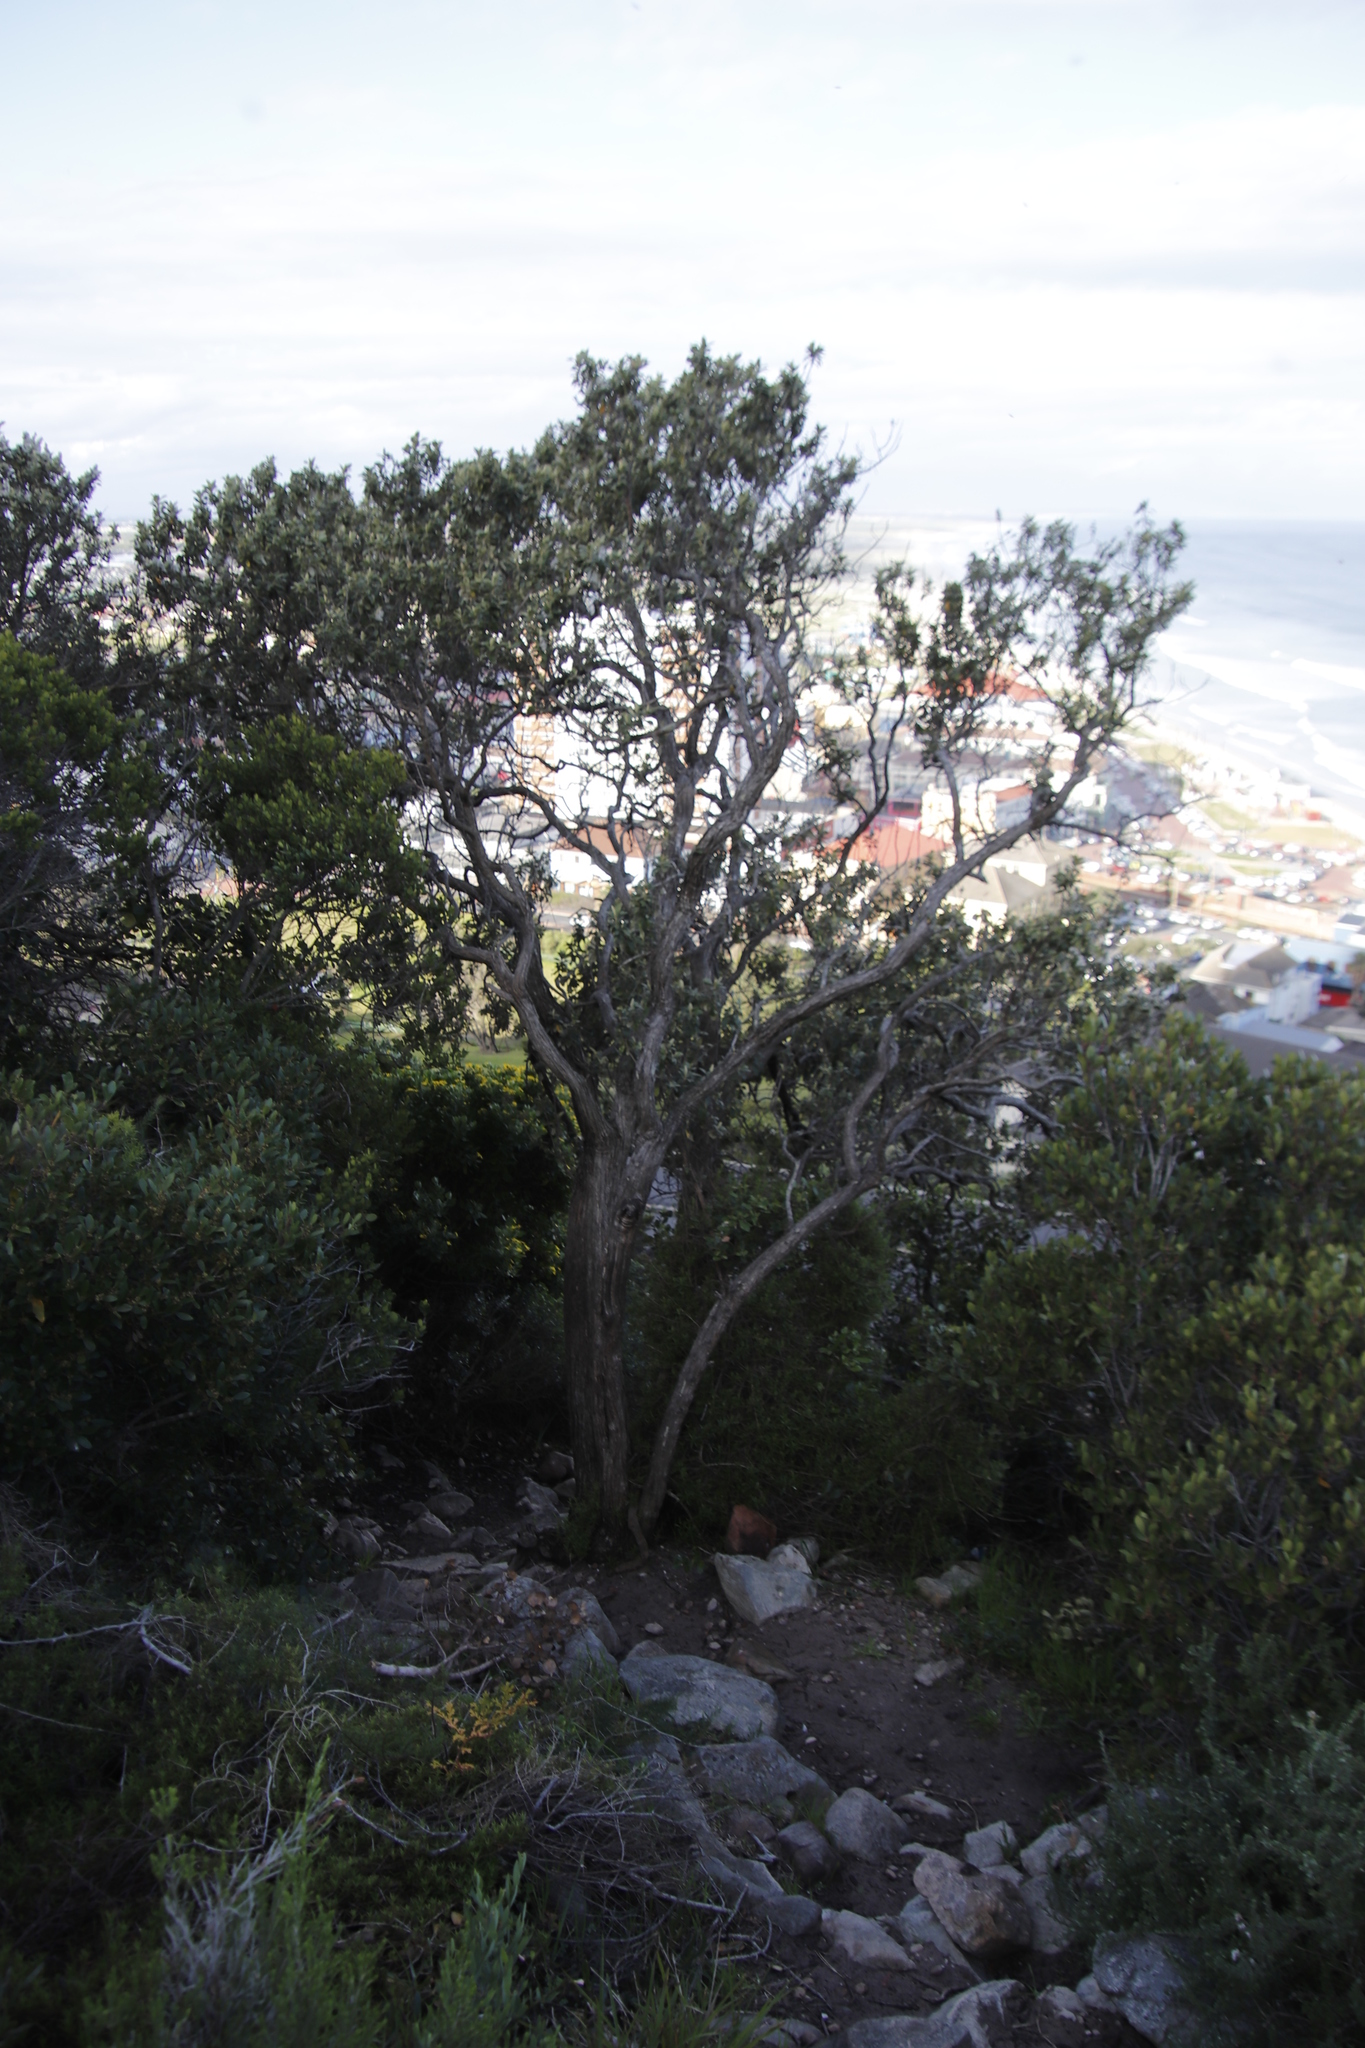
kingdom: Plantae
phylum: Tracheophyta
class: Magnoliopsida
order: Asterales
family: Asteraceae
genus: Tarchonanthus
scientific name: Tarchonanthus littoralis
